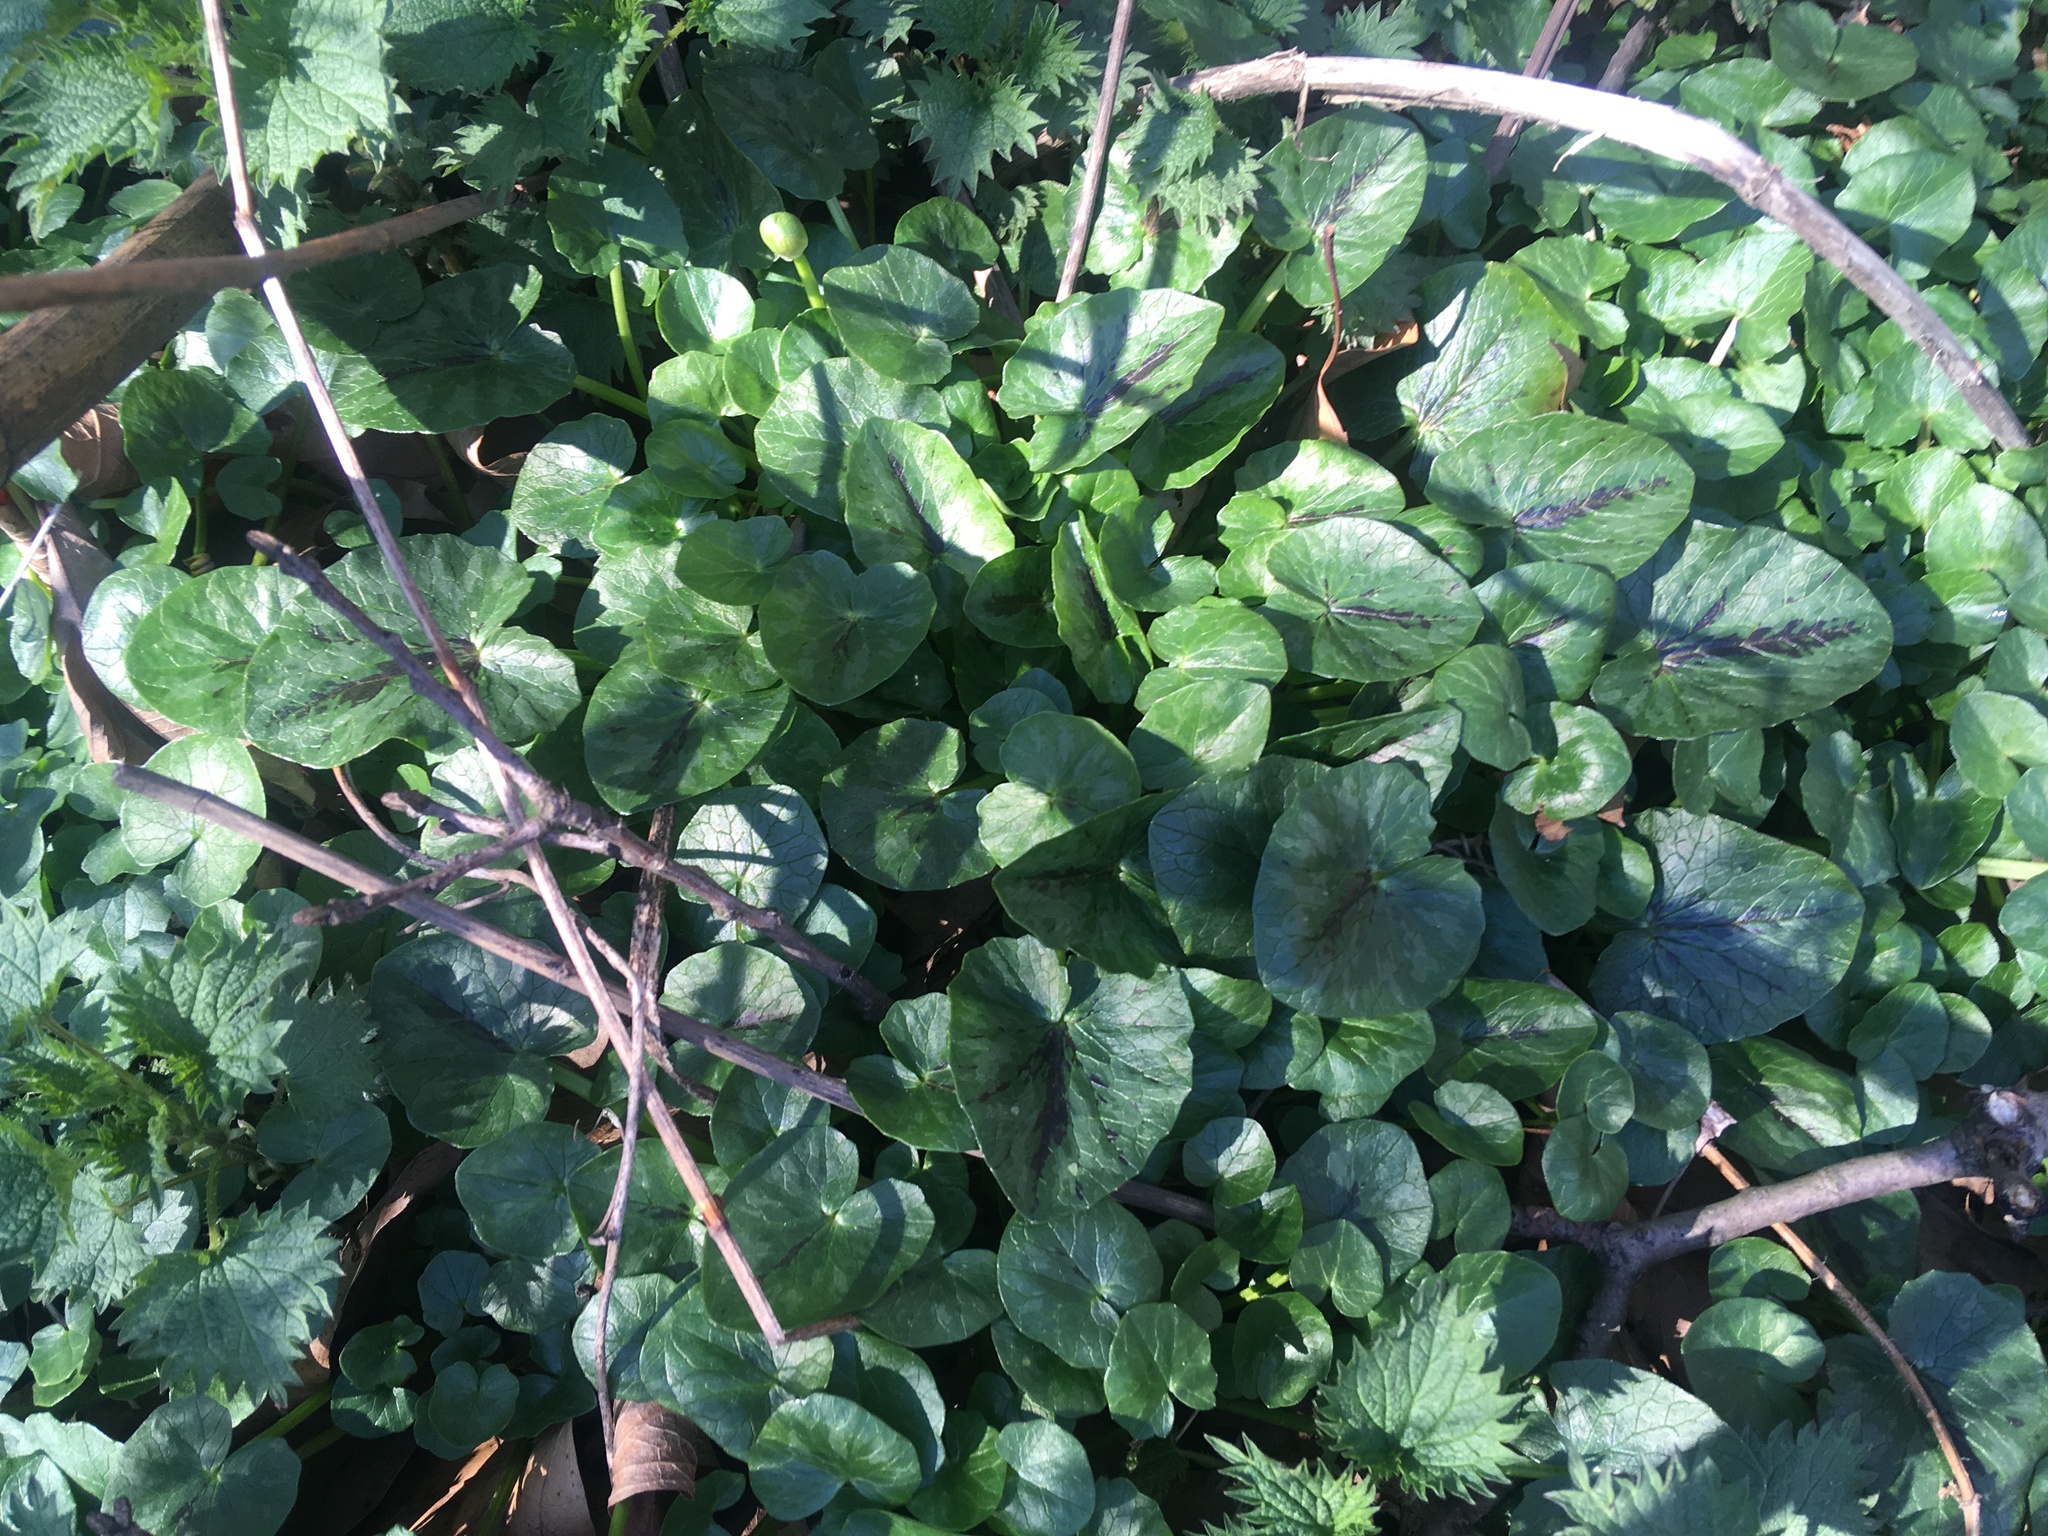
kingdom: Plantae
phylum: Tracheophyta
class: Magnoliopsida
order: Ranunculales
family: Ranunculaceae
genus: Ficaria
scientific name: Ficaria verna
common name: Lesser celandine
